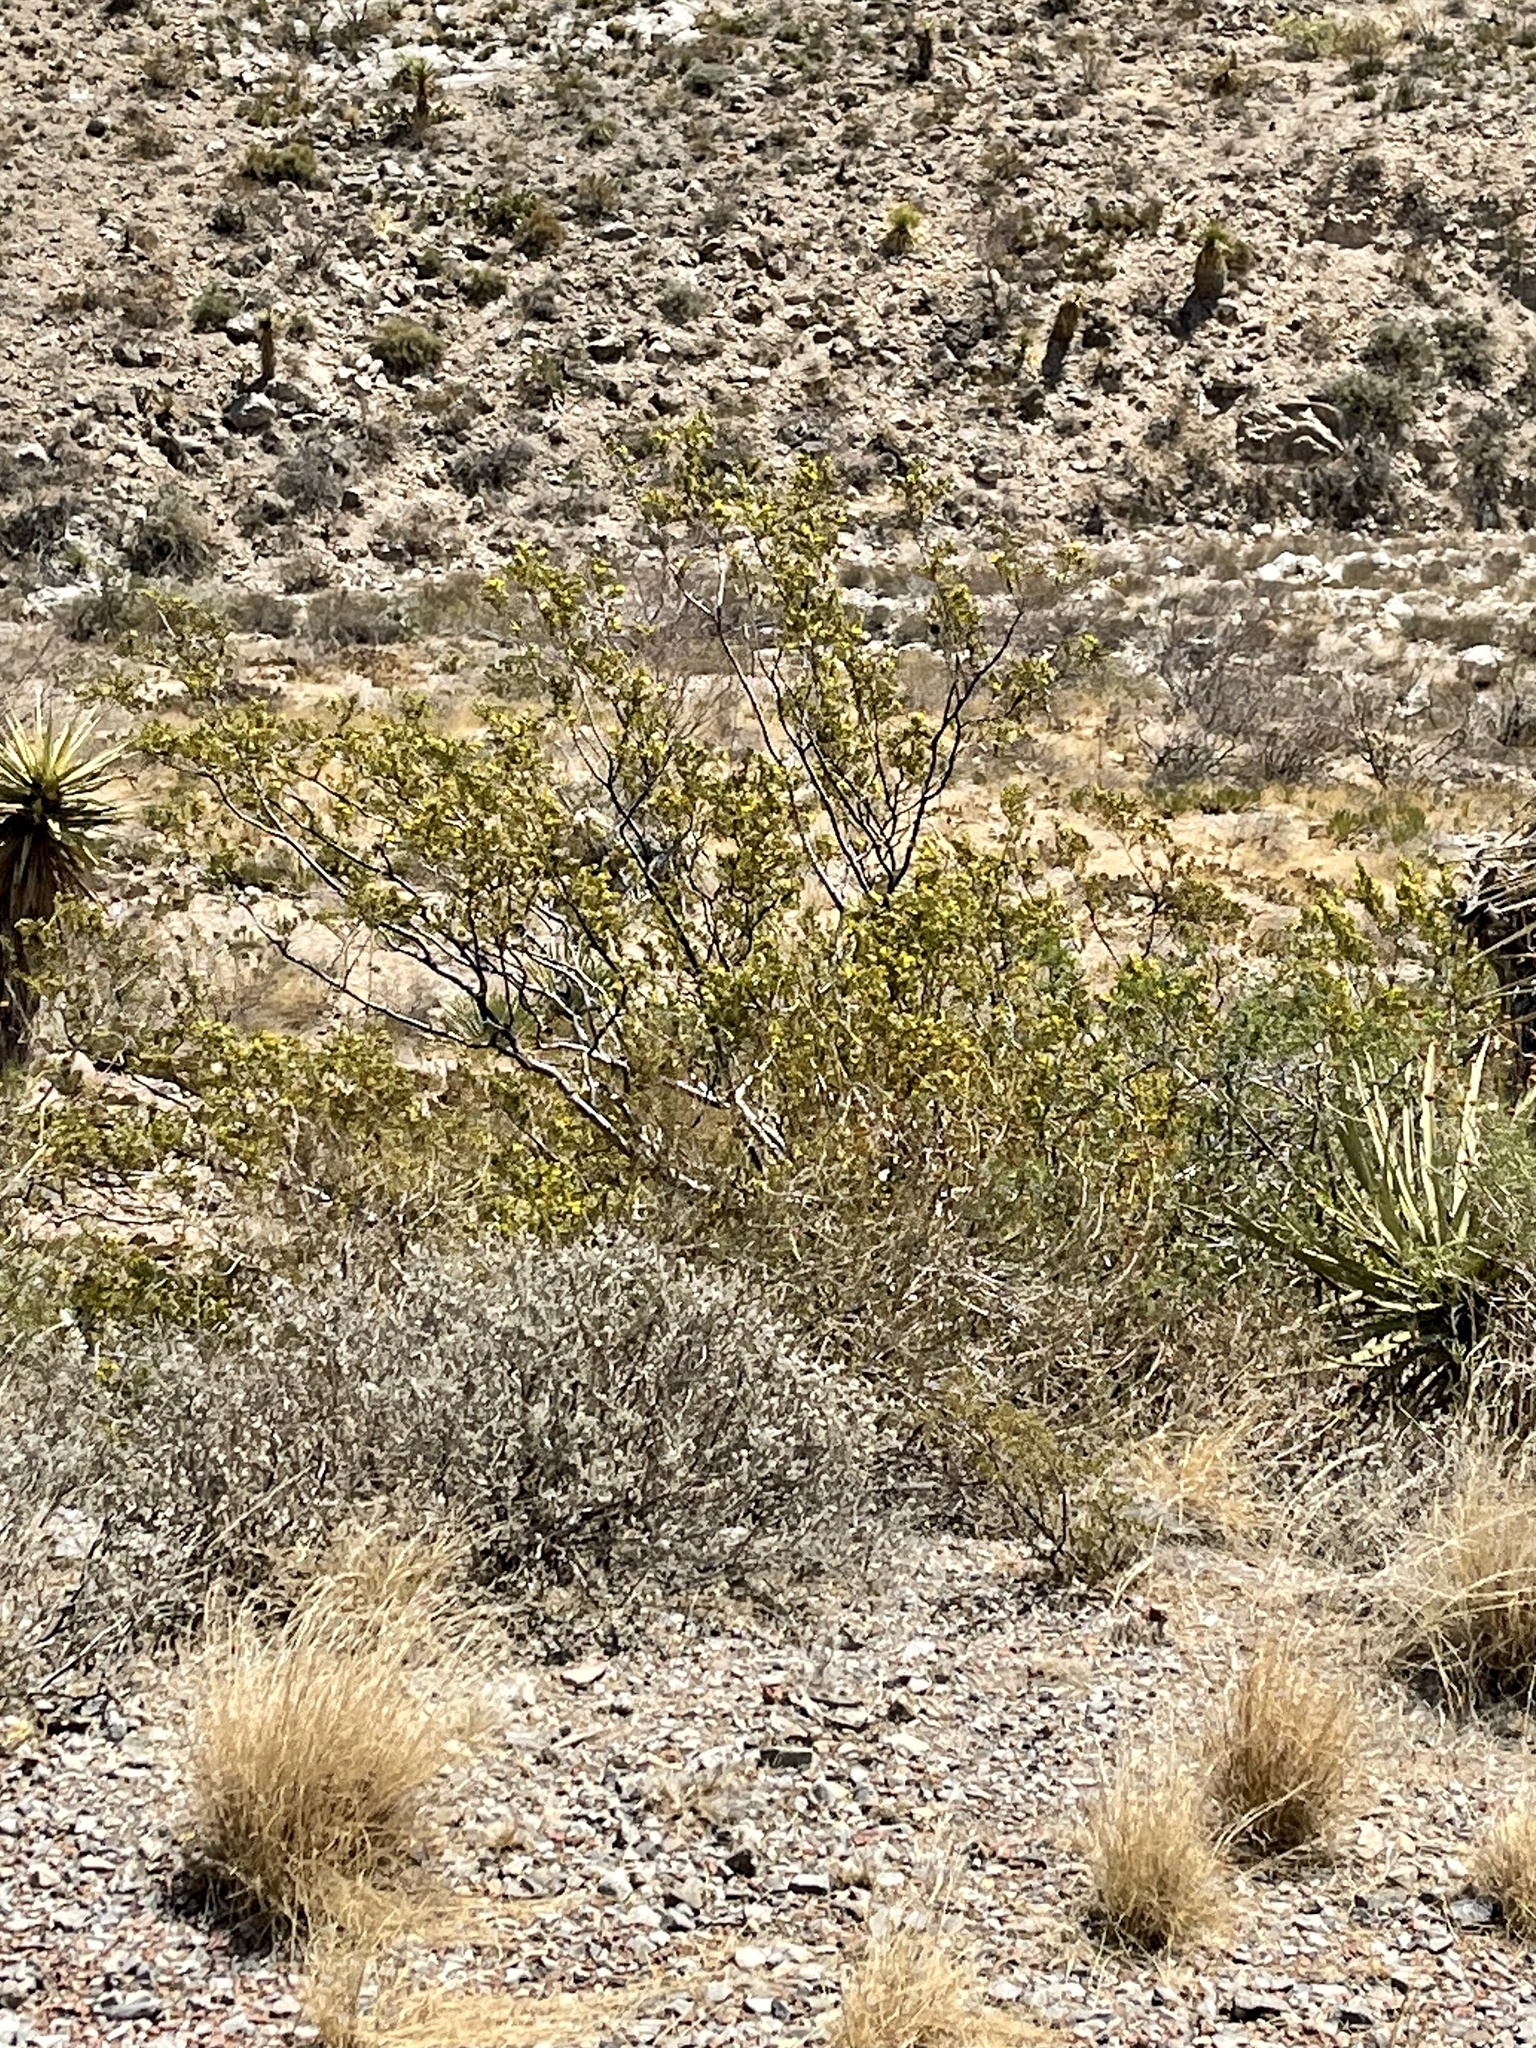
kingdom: Plantae
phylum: Tracheophyta
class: Magnoliopsida
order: Zygophyllales
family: Zygophyllaceae
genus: Larrea
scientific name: Larrea tridentata
